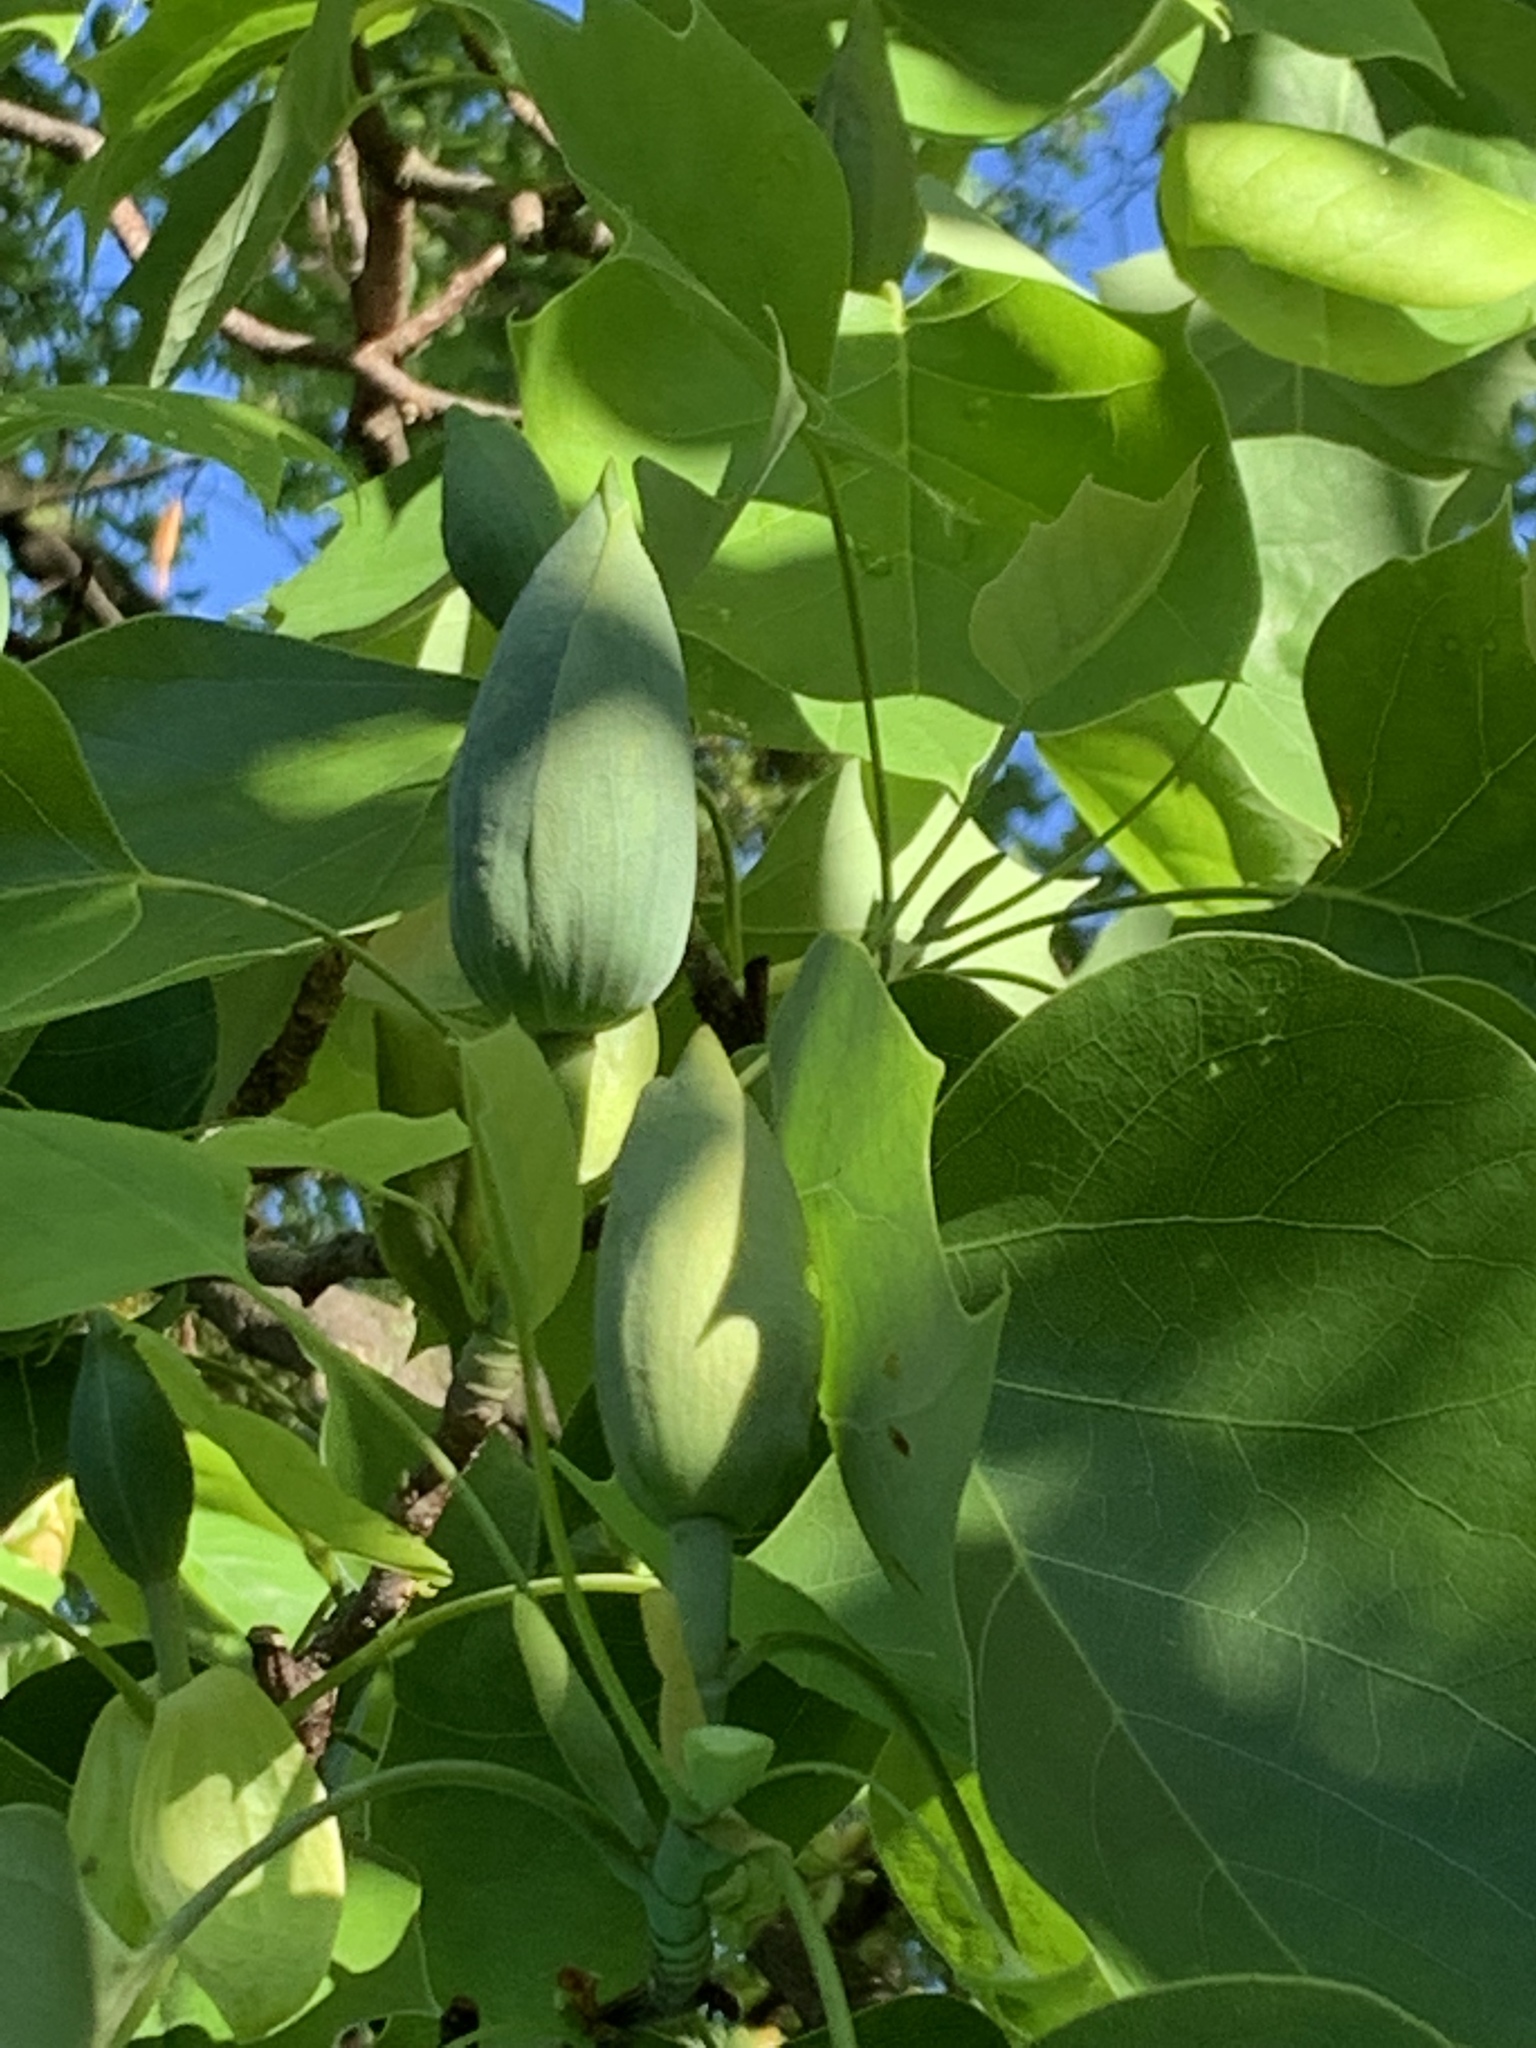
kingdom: Plantae
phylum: Tracheophyta
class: Magnoliopsida
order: Magnoliales
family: Magnoliaceae
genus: Liriodendron
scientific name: Liriodendron tulipifera
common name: Tulip tree
